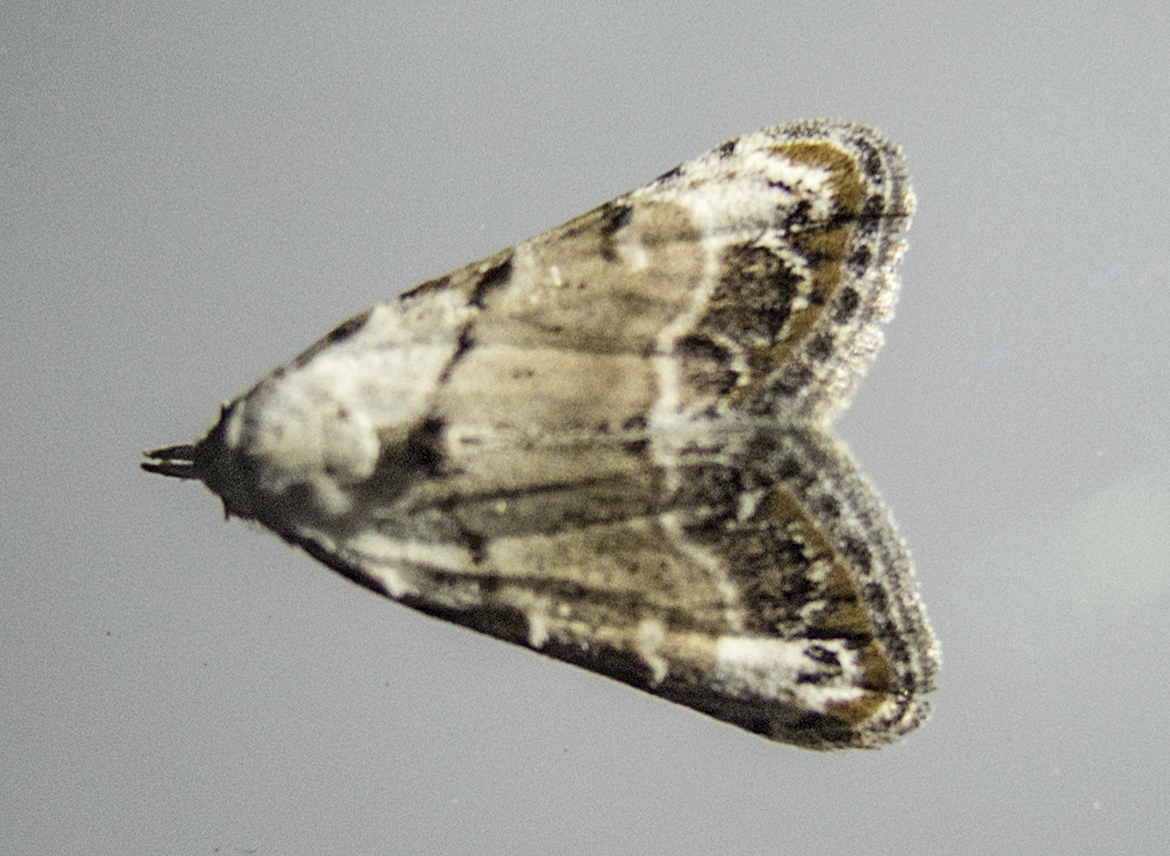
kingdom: Animalia
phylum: Arthropoda
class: Insecta
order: Lepidoptera
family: Nolidae
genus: Nola
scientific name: Nola chlamitulalis
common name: Jersey black arches
